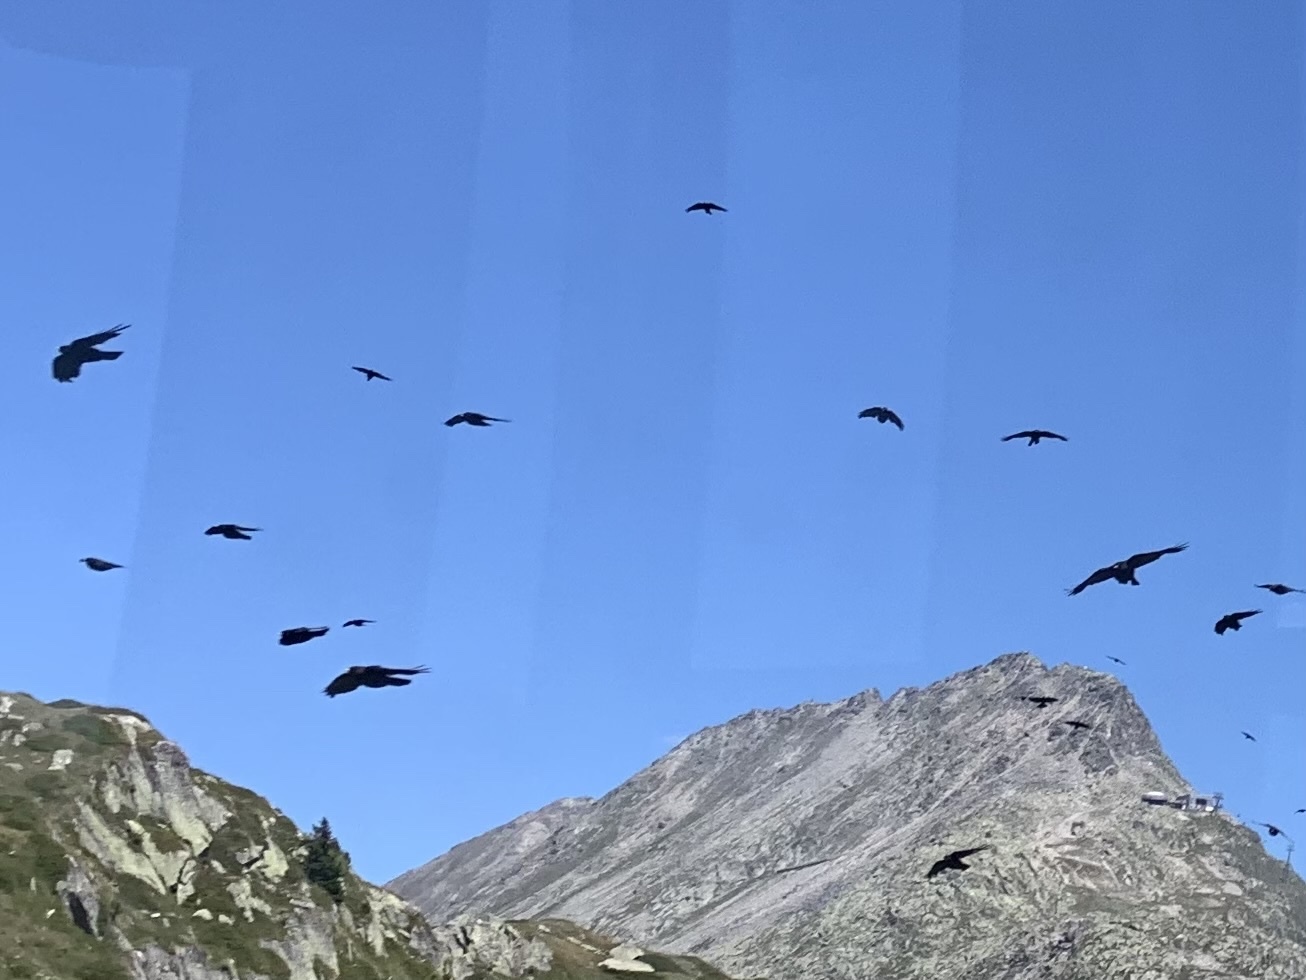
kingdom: Animalia
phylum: Chordata
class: Aves
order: Passeriformes
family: Corvidae
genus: Pyrrhocorax
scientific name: Pyrrhocorax graculus
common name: Alpine chough
